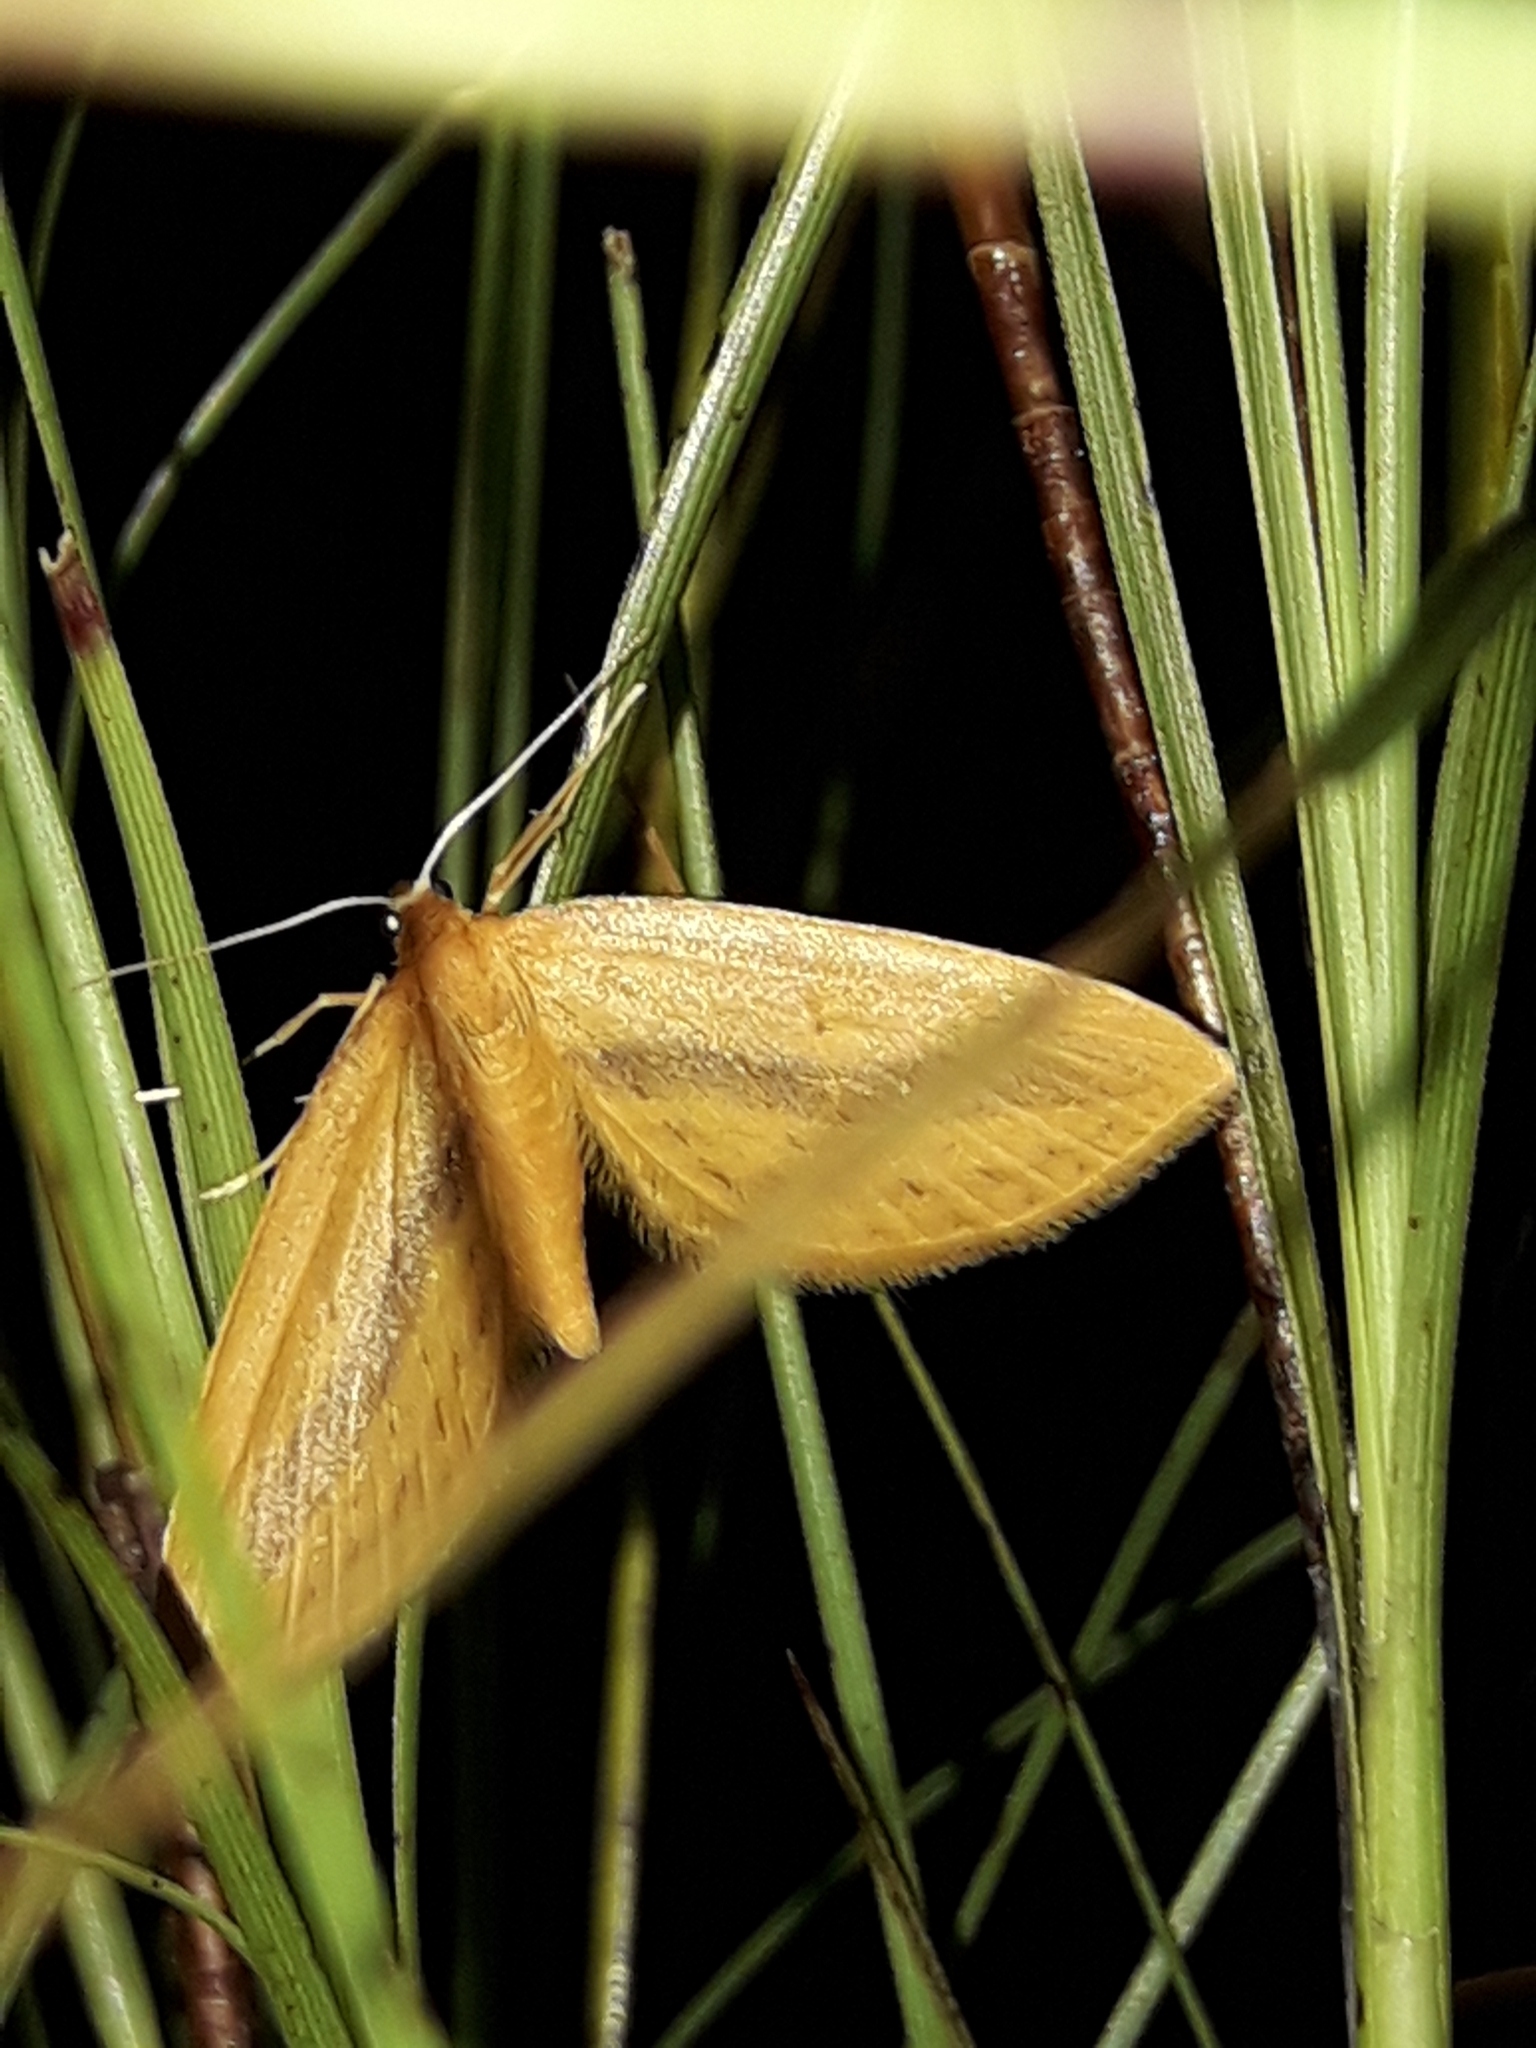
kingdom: Animalia
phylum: Arthropoda
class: Insecta
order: Lepidoptera
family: Geometridae
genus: Epiphryne
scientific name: Epiphryne charidema
